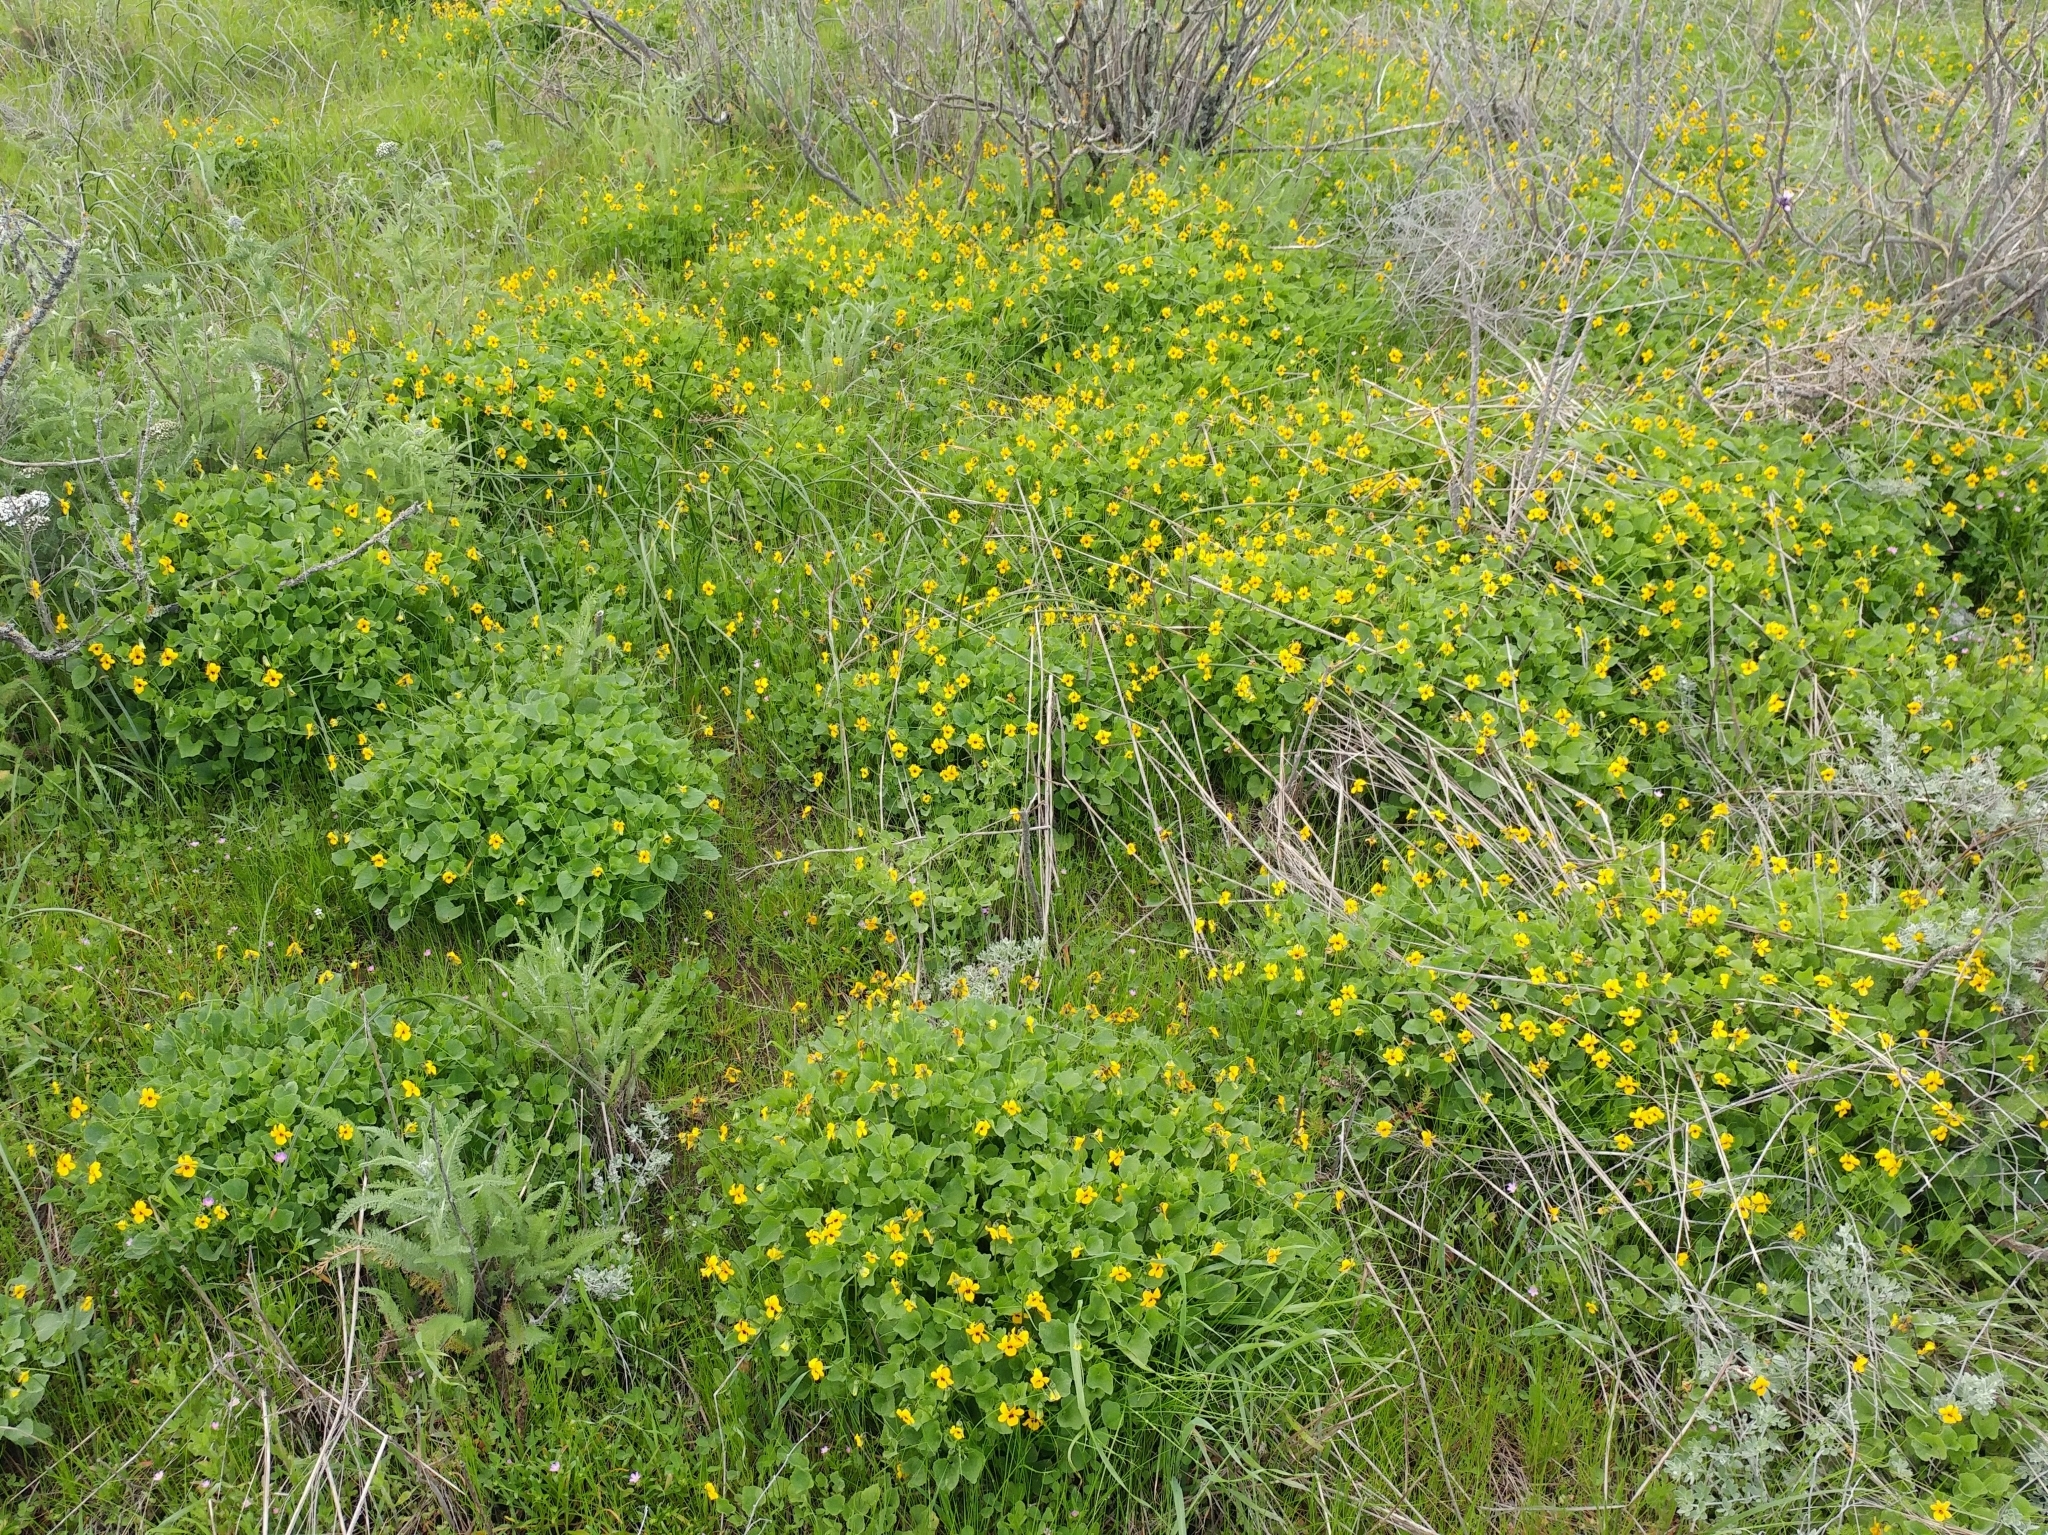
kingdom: Plantae
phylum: Tracheophyta
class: Magnoliopsida
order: Malpighiales
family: Violaceae
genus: Viola
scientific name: Viola pedunculata
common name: California golden violet
